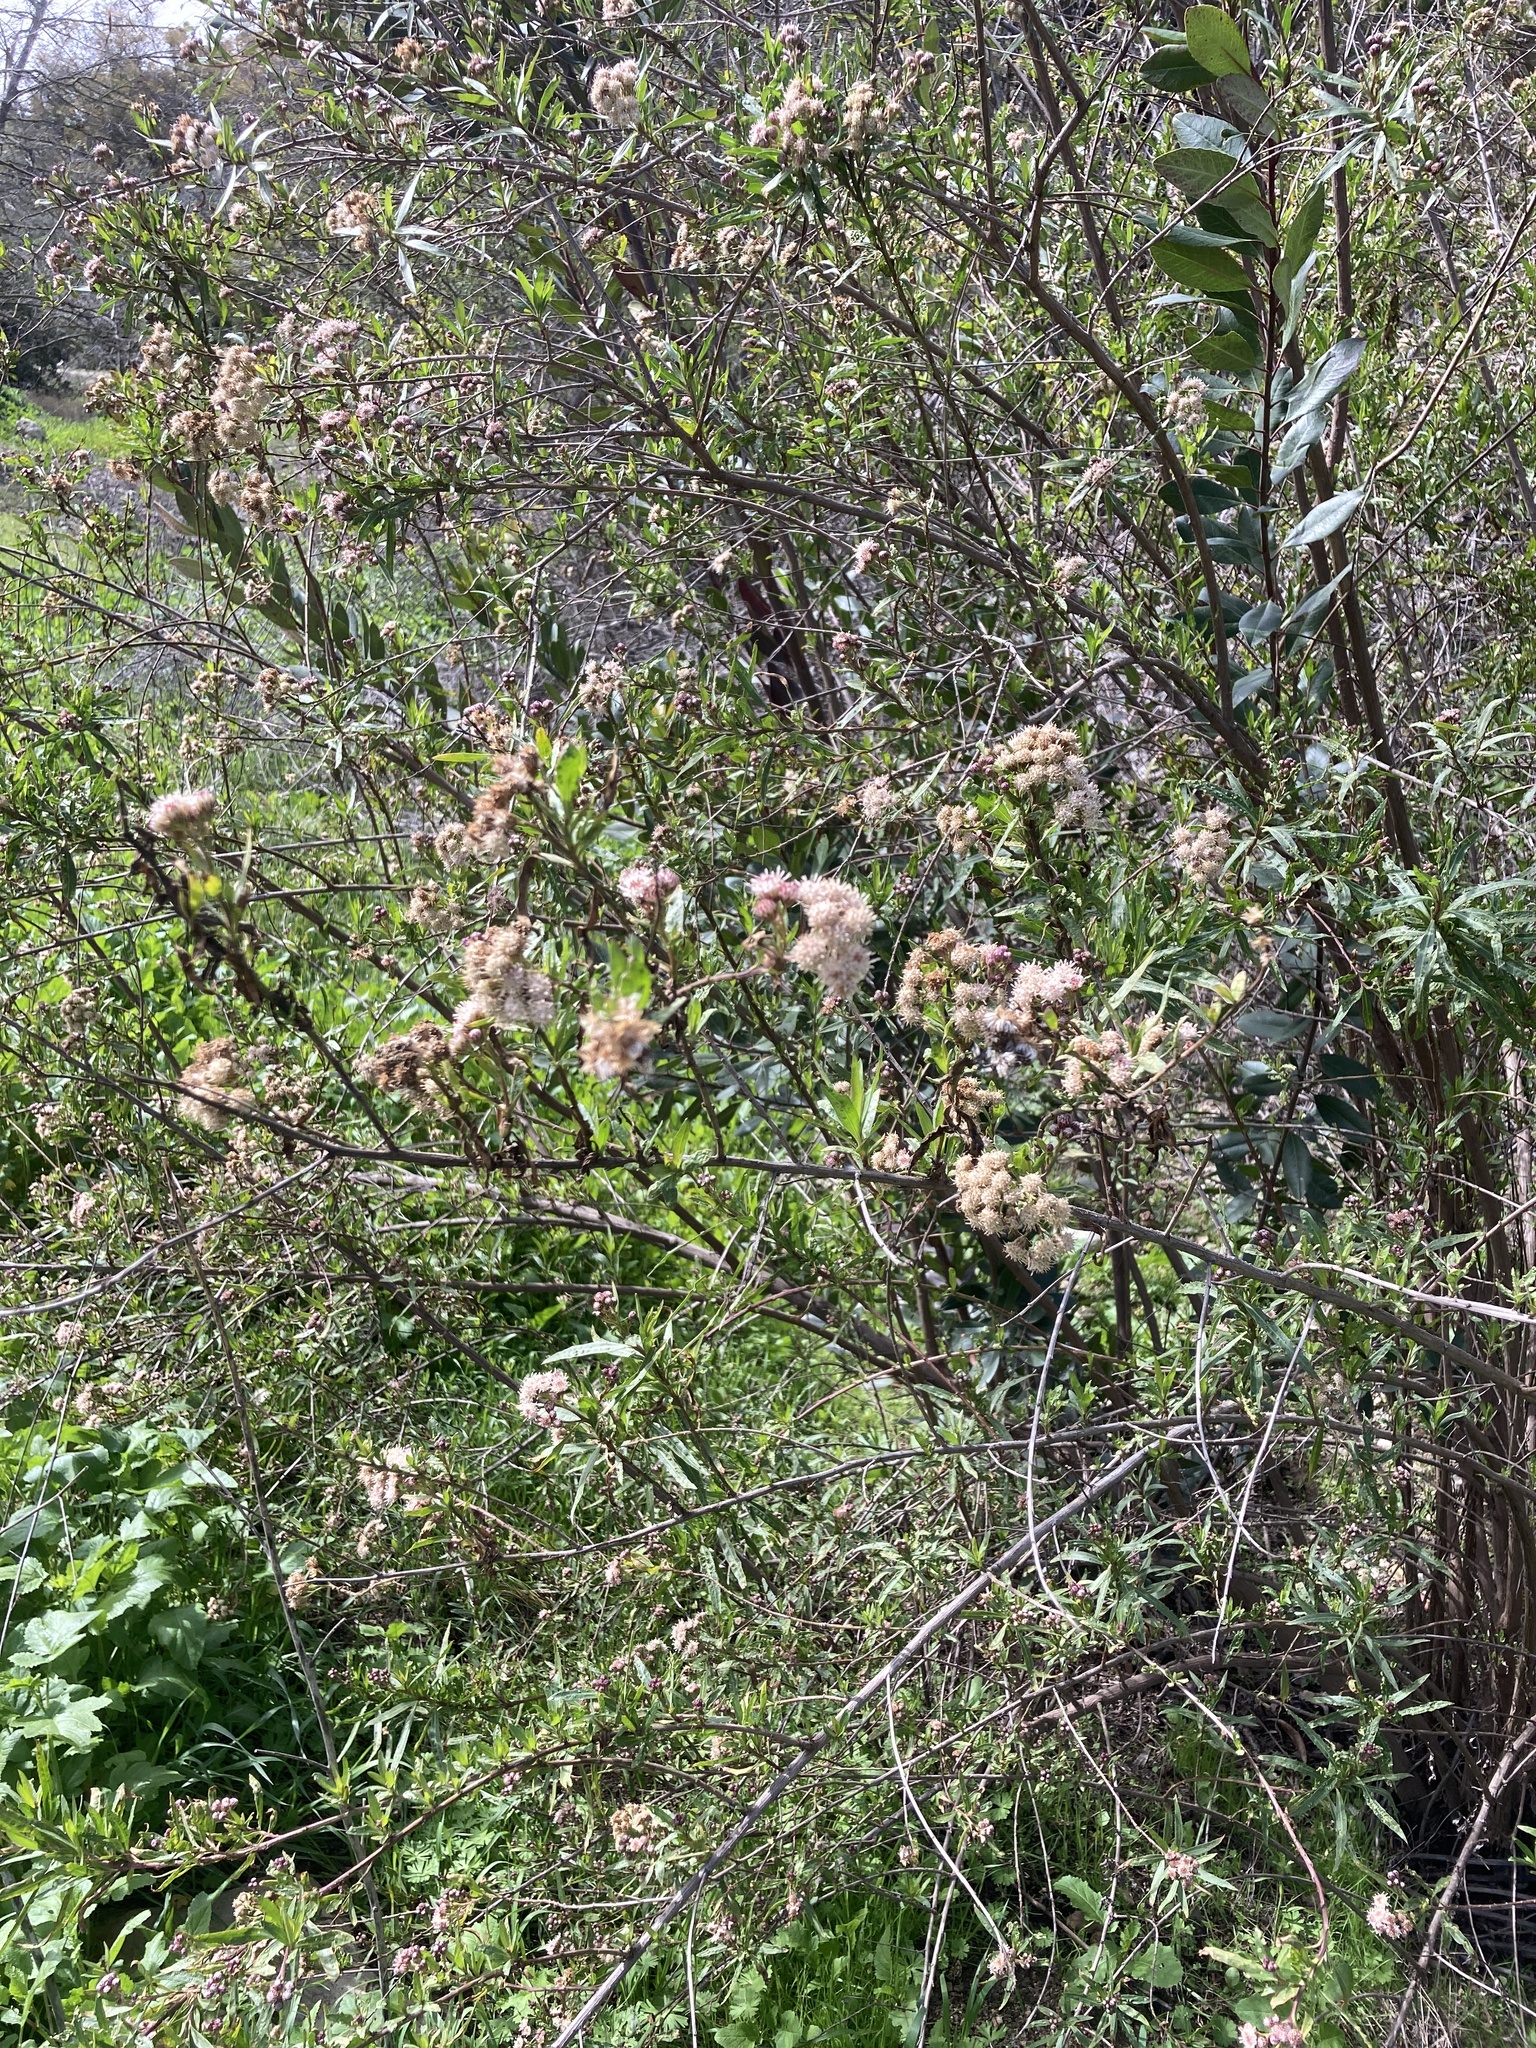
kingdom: Plantae
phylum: Tracheophyta
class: Magnoliopsida
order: Asterales
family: Asteraceae
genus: Baccharis
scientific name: Baccharis salicifolia
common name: Sticky baccharis
